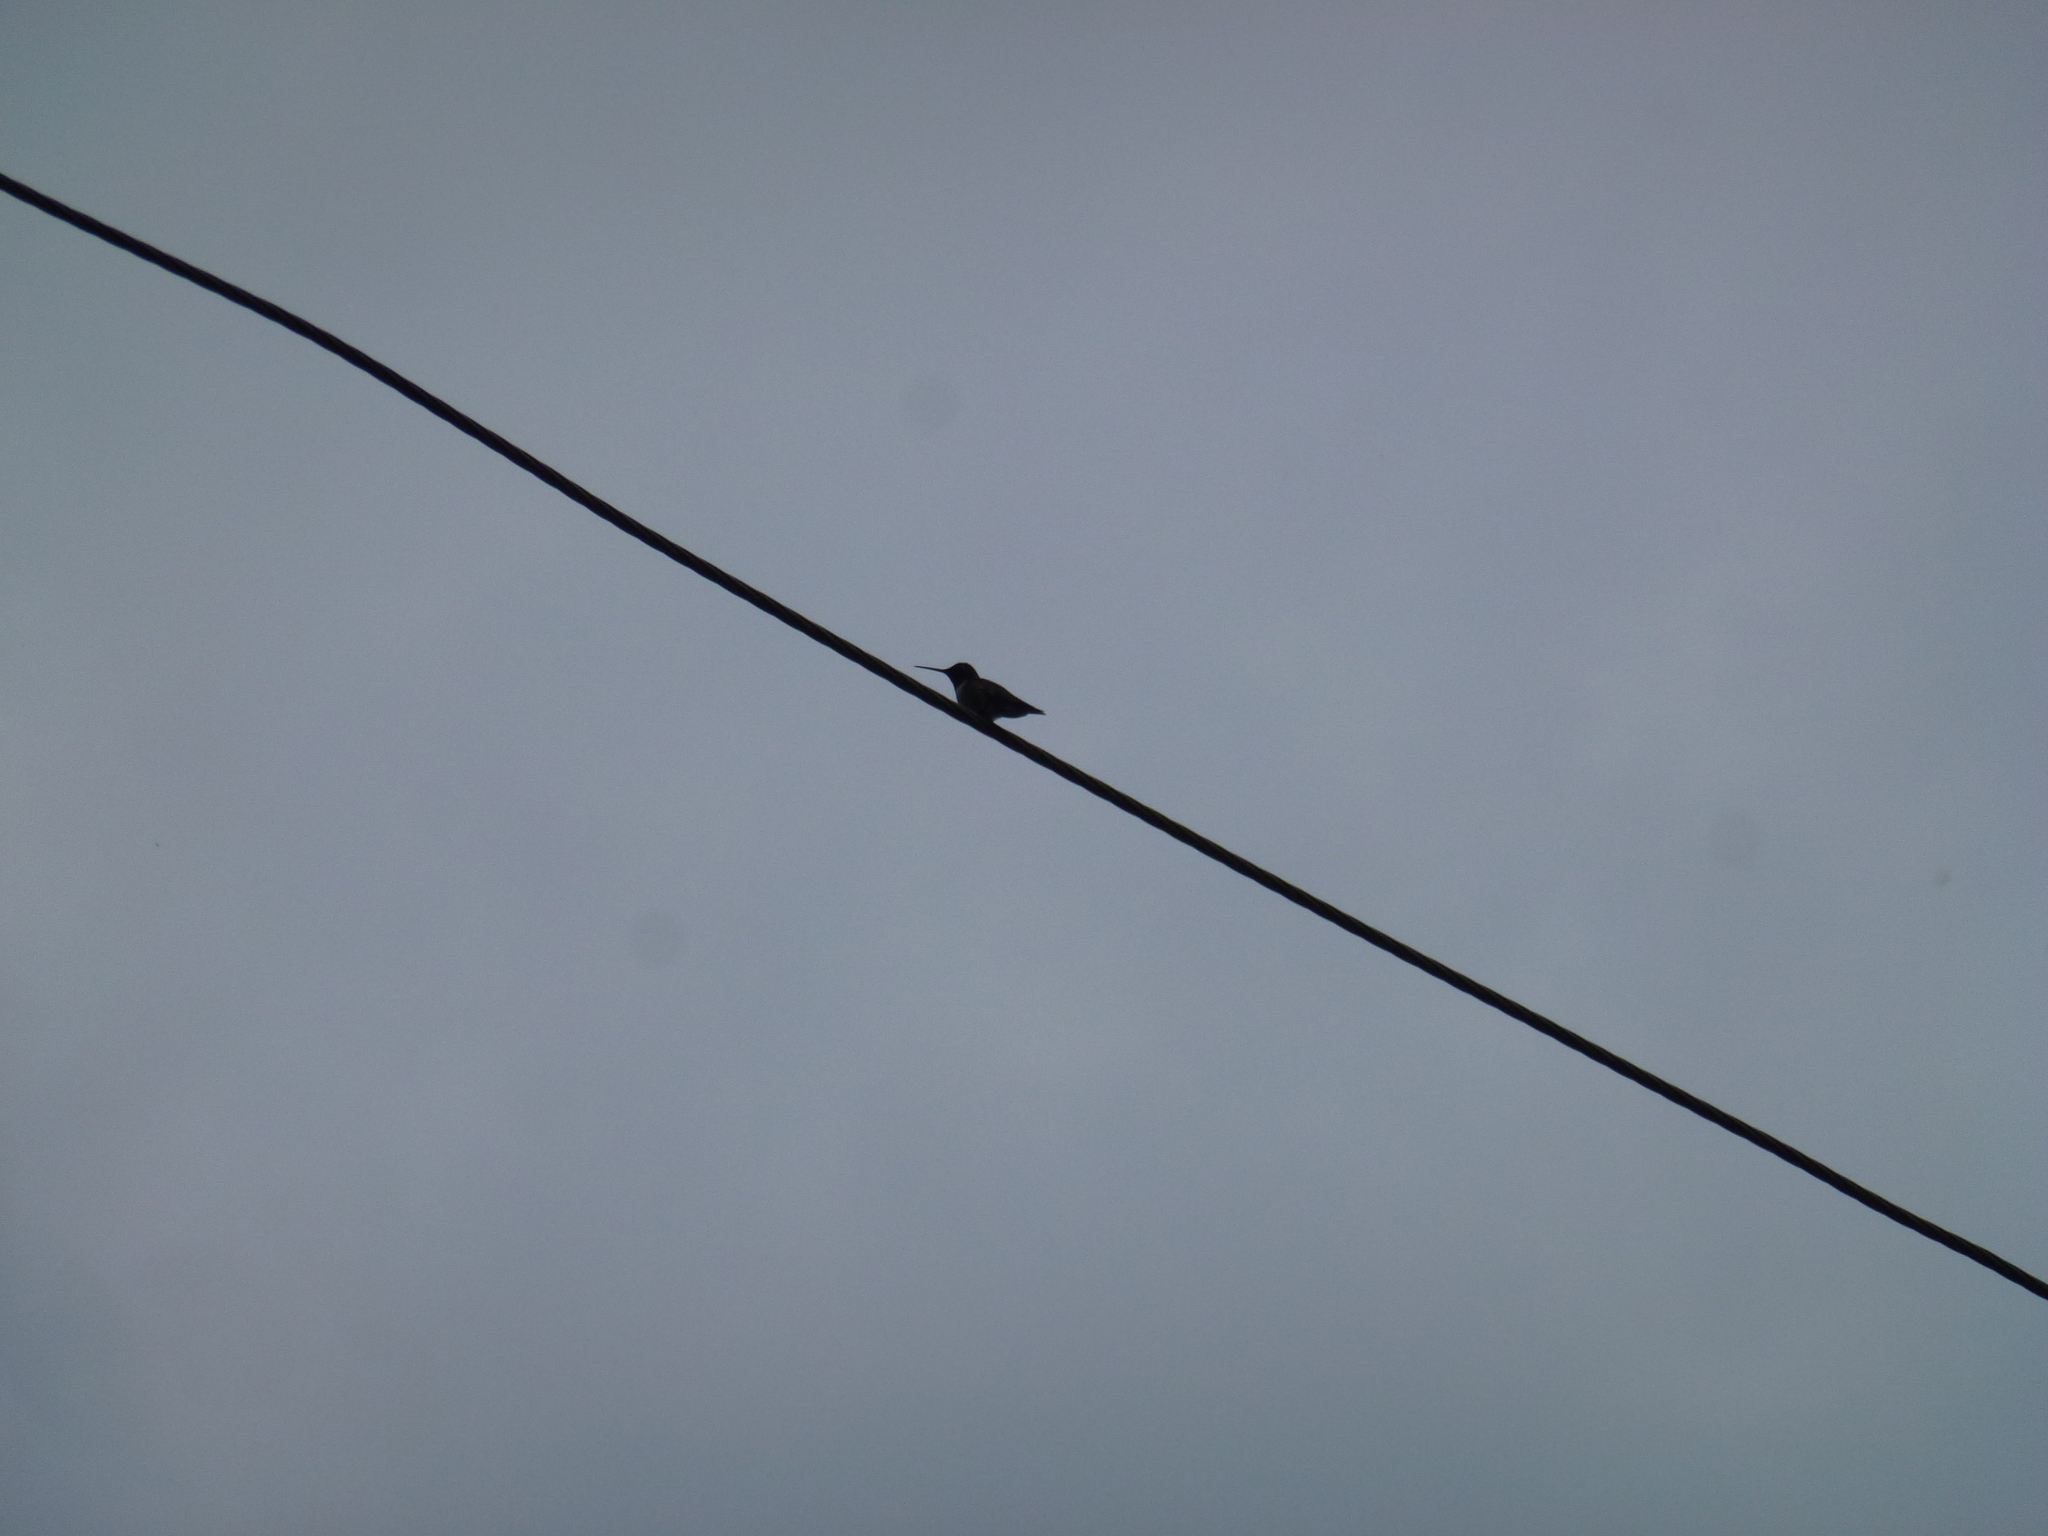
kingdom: Animalia
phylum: Chordata
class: Aves
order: Apodiformes
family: Trochilidae
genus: Archilochus
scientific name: Archilochus colubris
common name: Ruby-throated hummingbird
